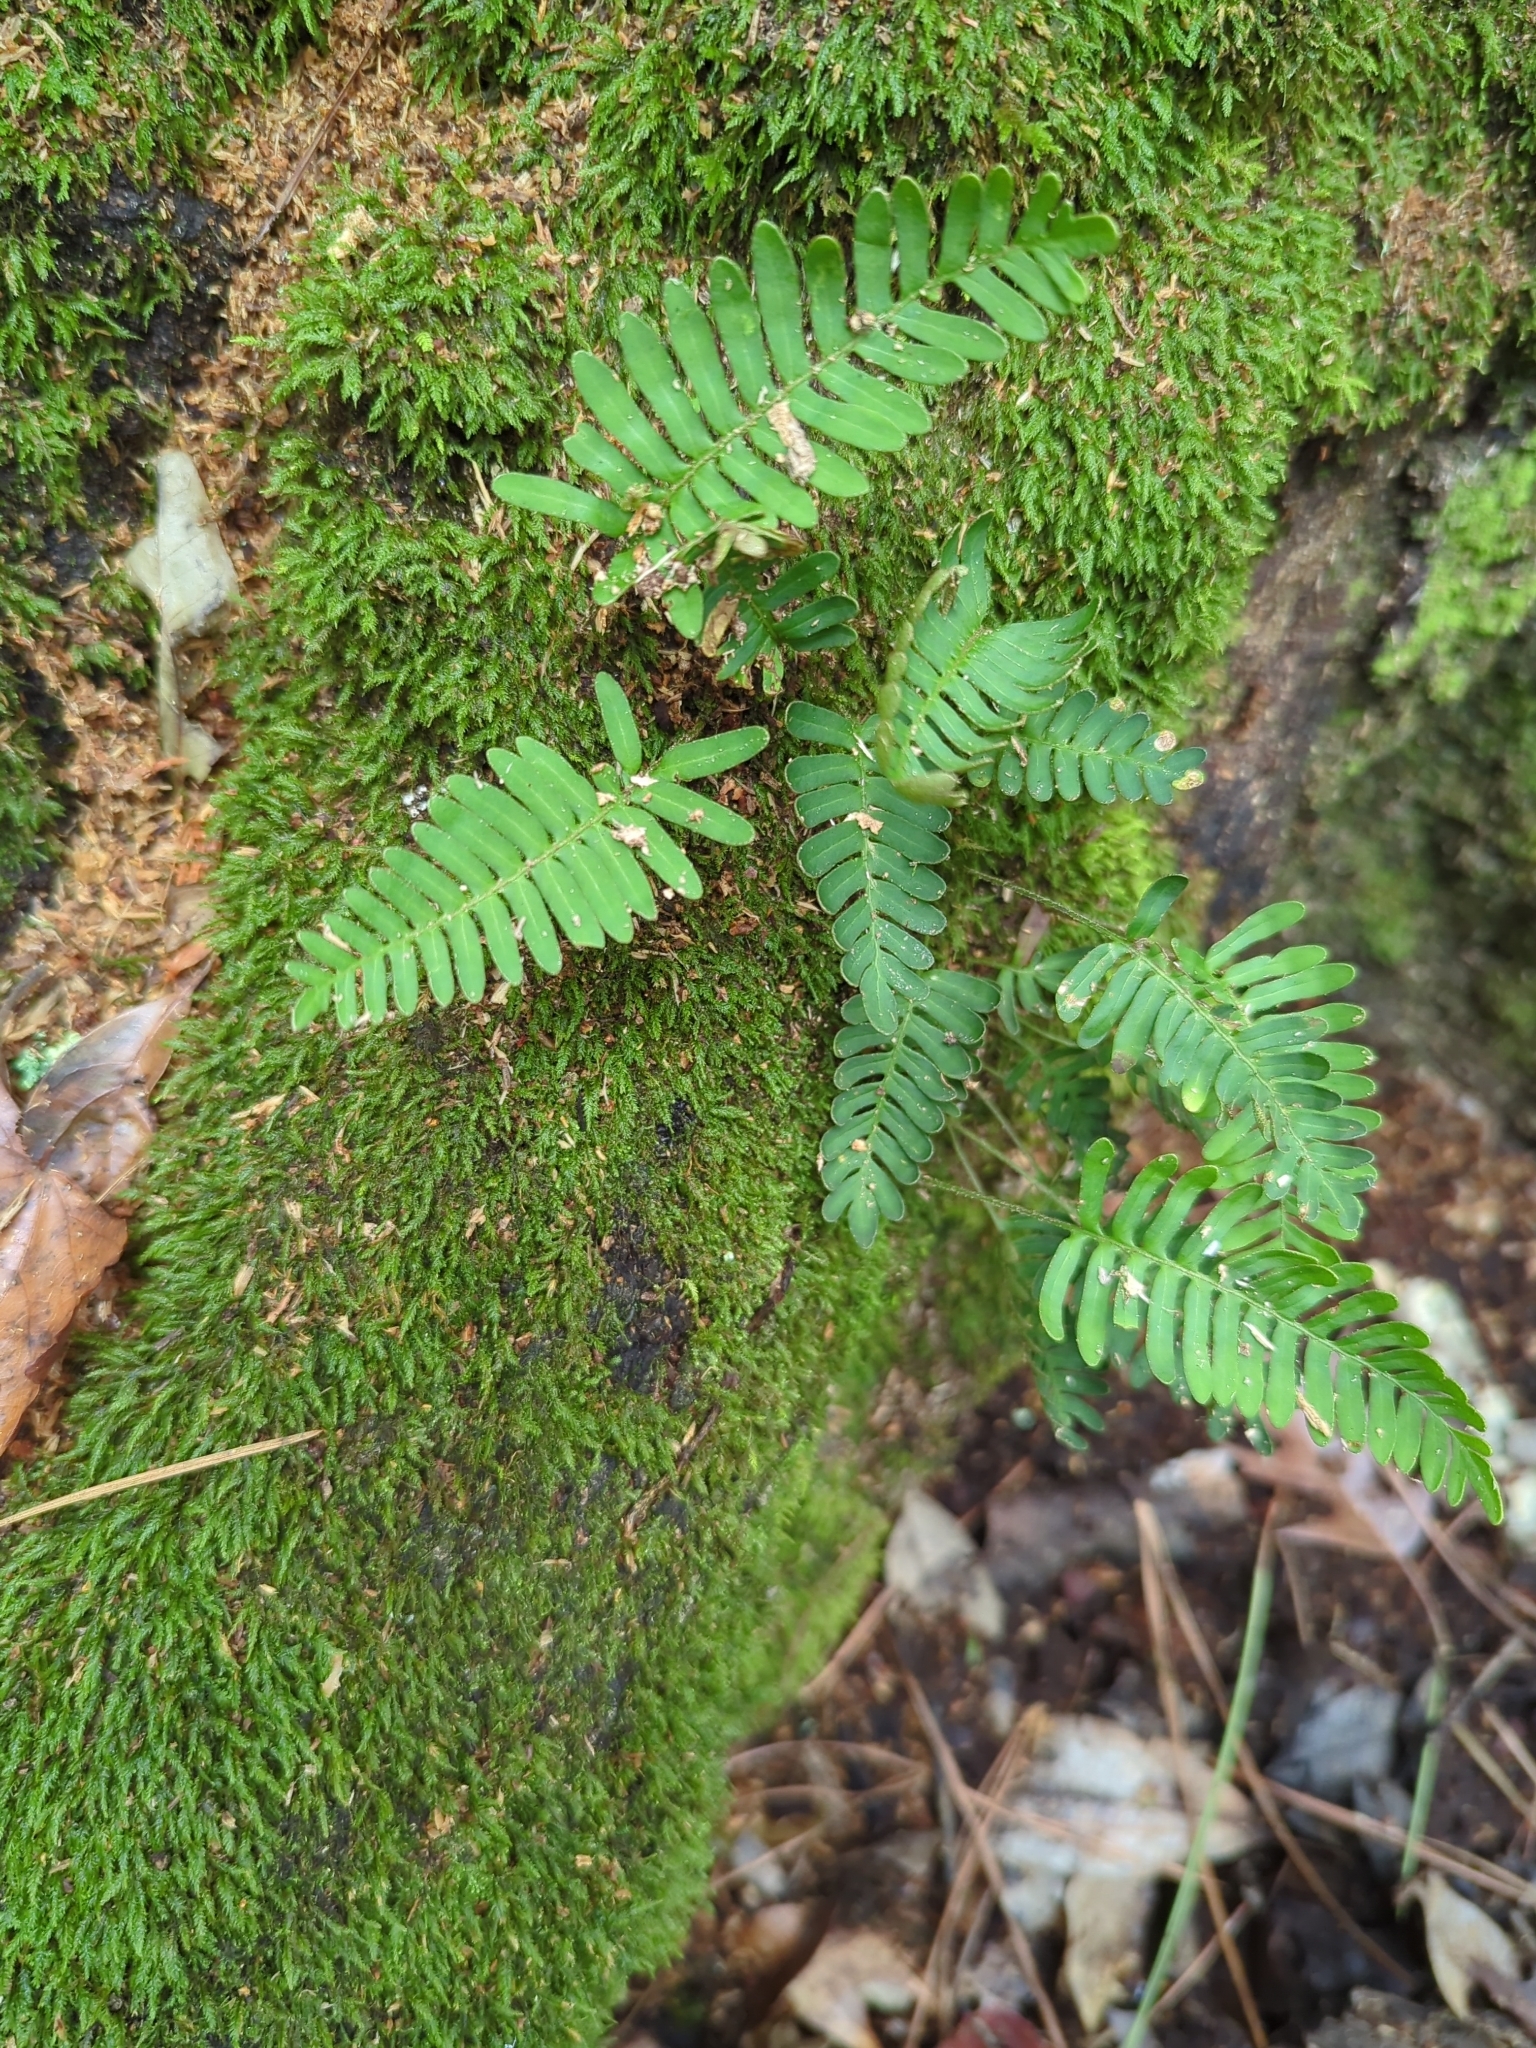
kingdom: Plantae
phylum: Tracheophyta
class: Polypodiopsida
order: Polypodiales
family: Polypodiaceae
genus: Pleopeltis
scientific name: Pleopeltis michauxiana
